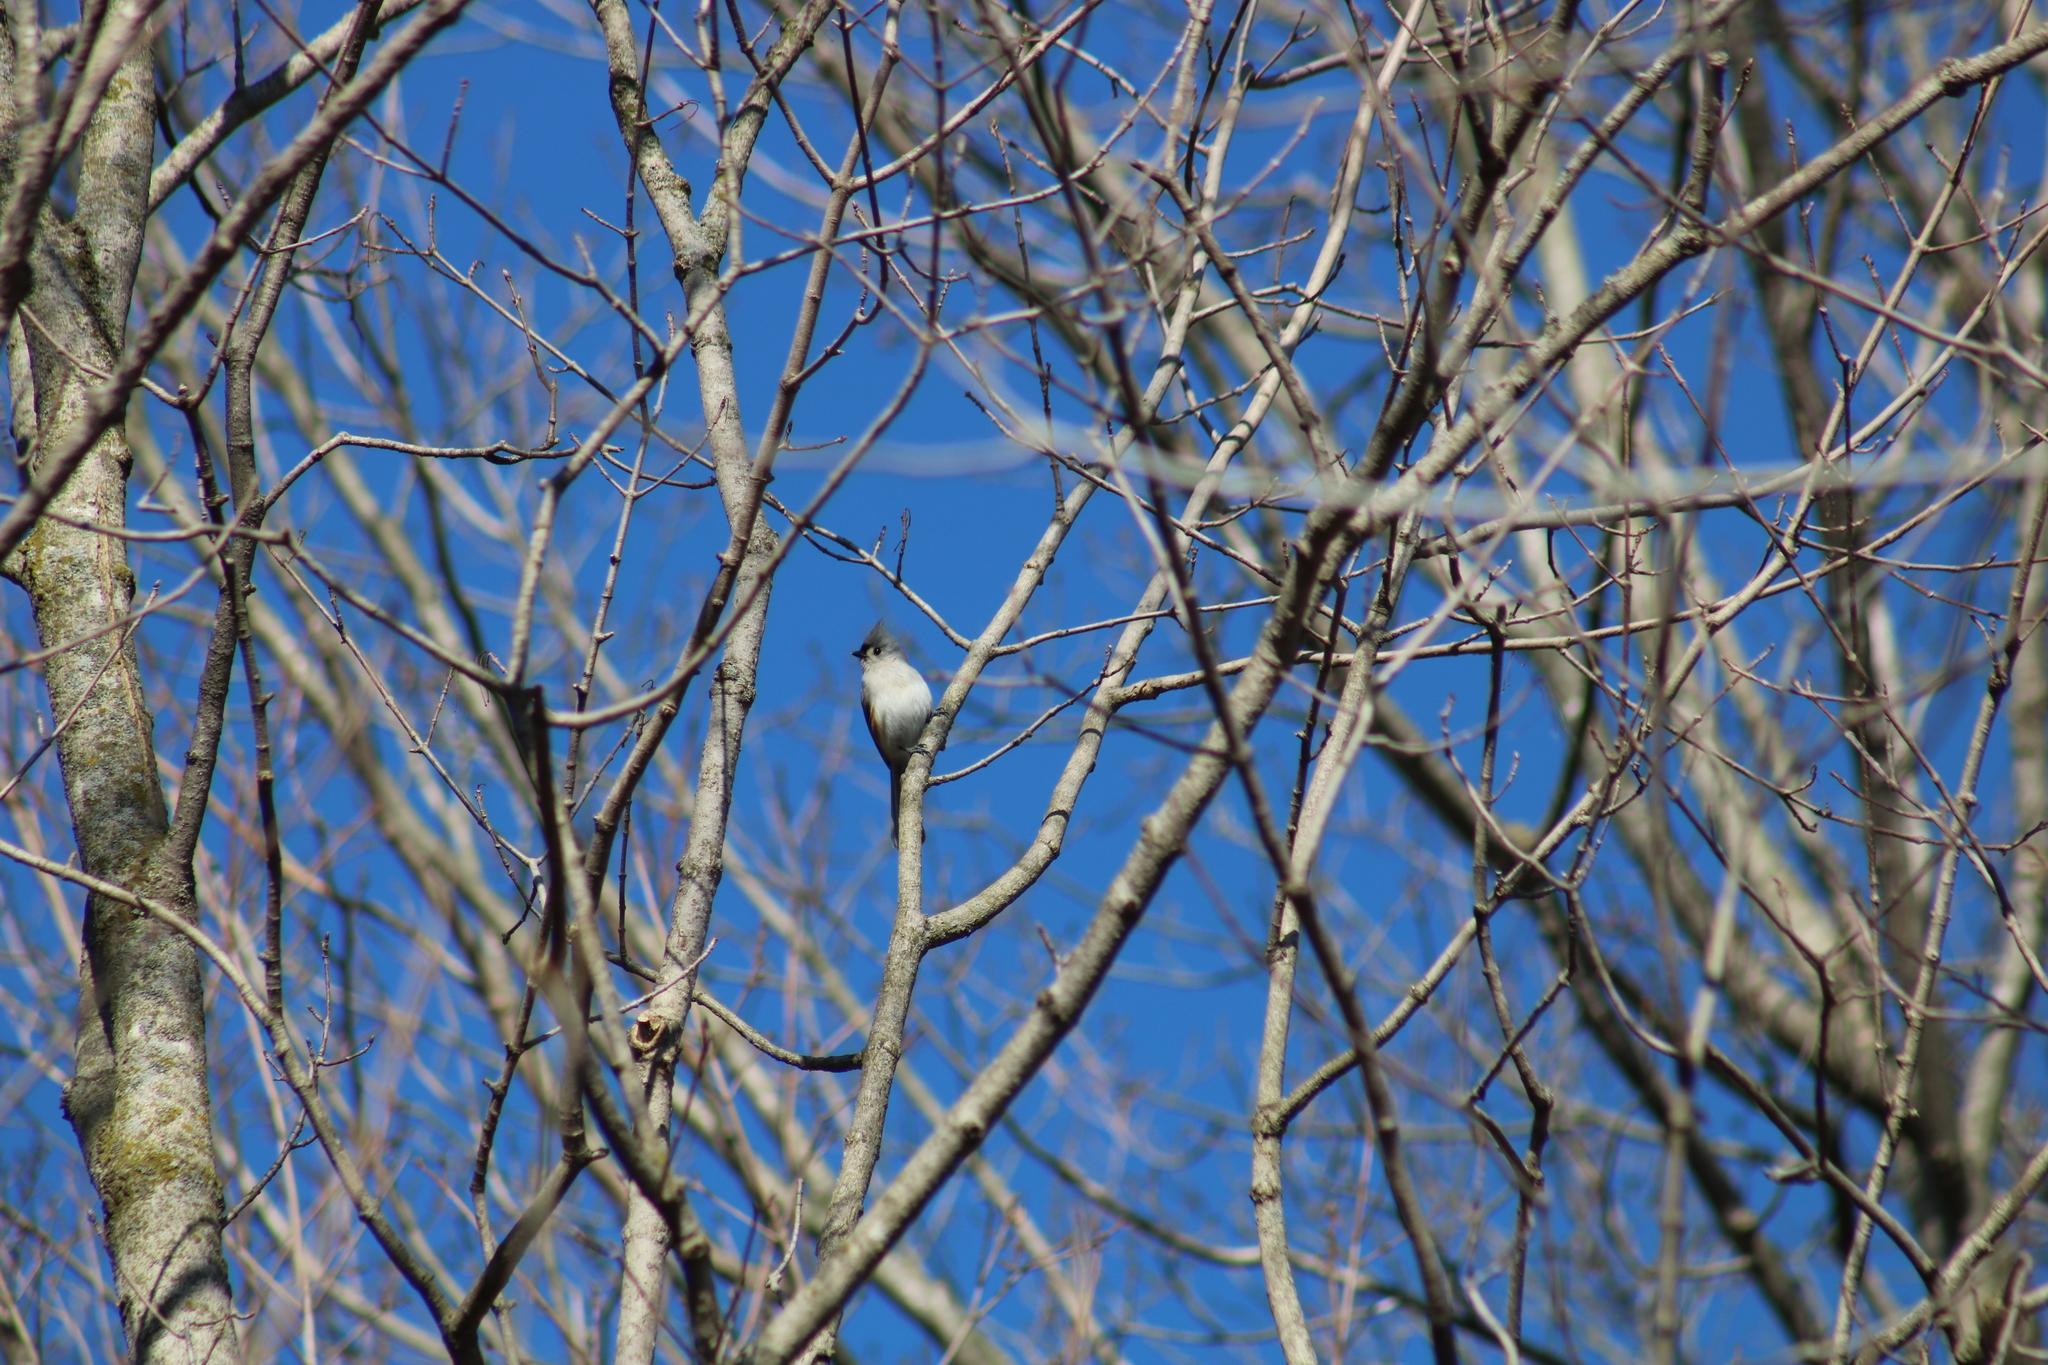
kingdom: Animalia
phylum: Chordata
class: Aves
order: Passeriformes
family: Paridae
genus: Baeolophus
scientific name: Baeolophus bicolor
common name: Tufted titmouse
